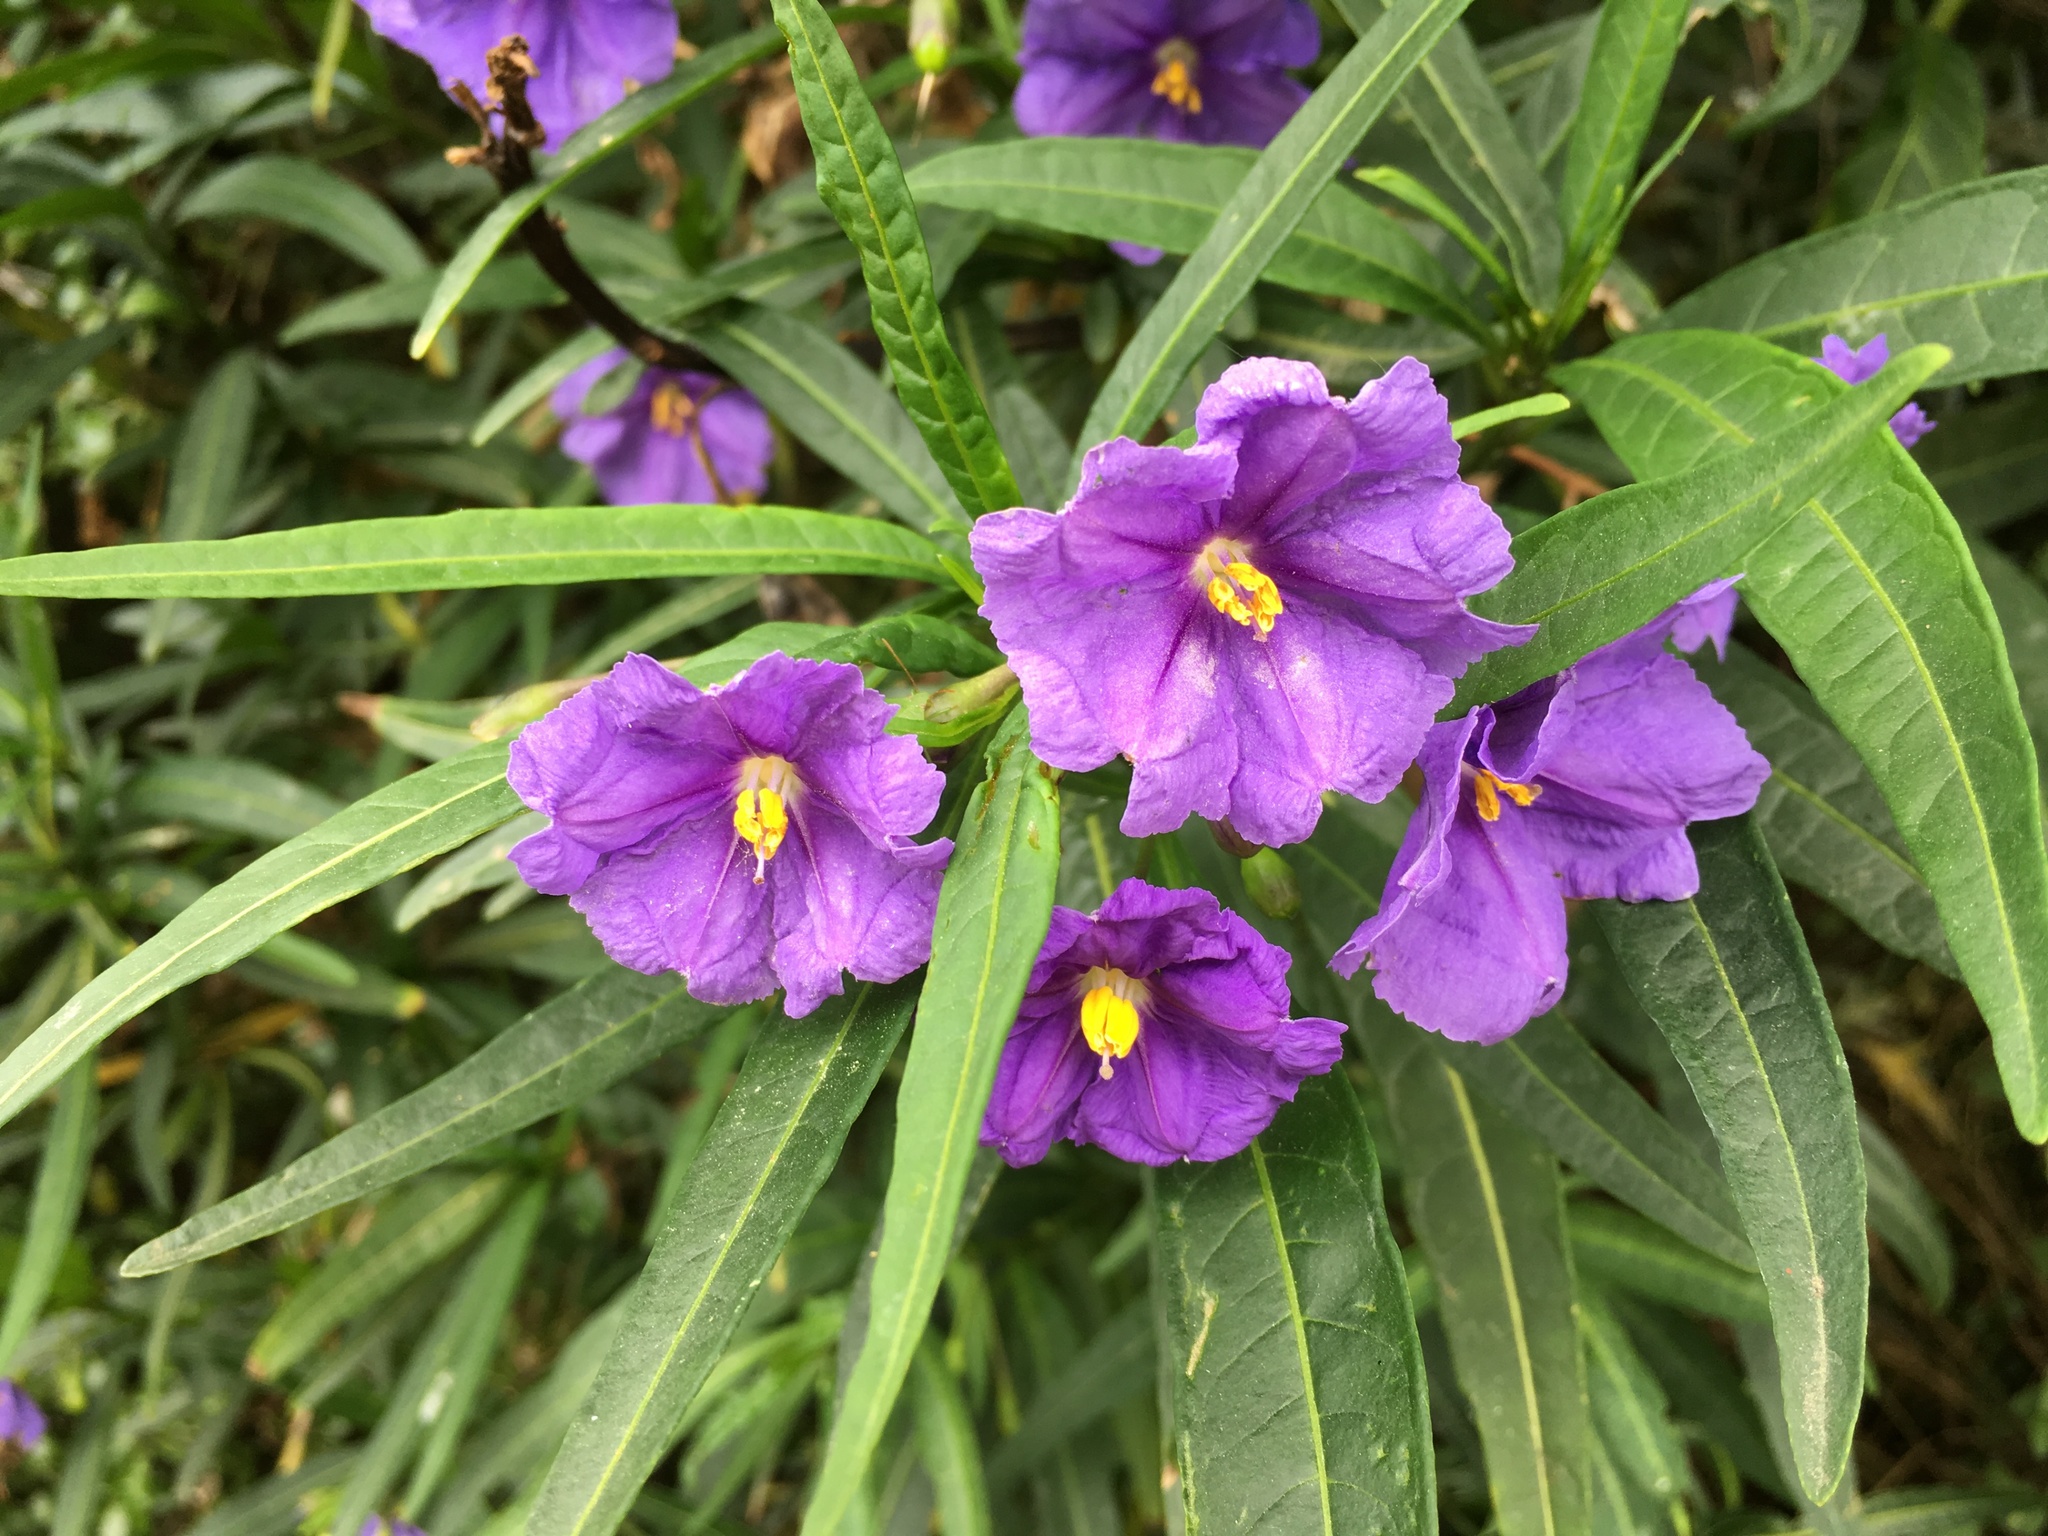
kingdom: Plantae
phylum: Tracheophyta
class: Magnoliopsida
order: Solanales
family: Solanaceae
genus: Solanum
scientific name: Solanum laciniatum
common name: Kangaroo-apple
